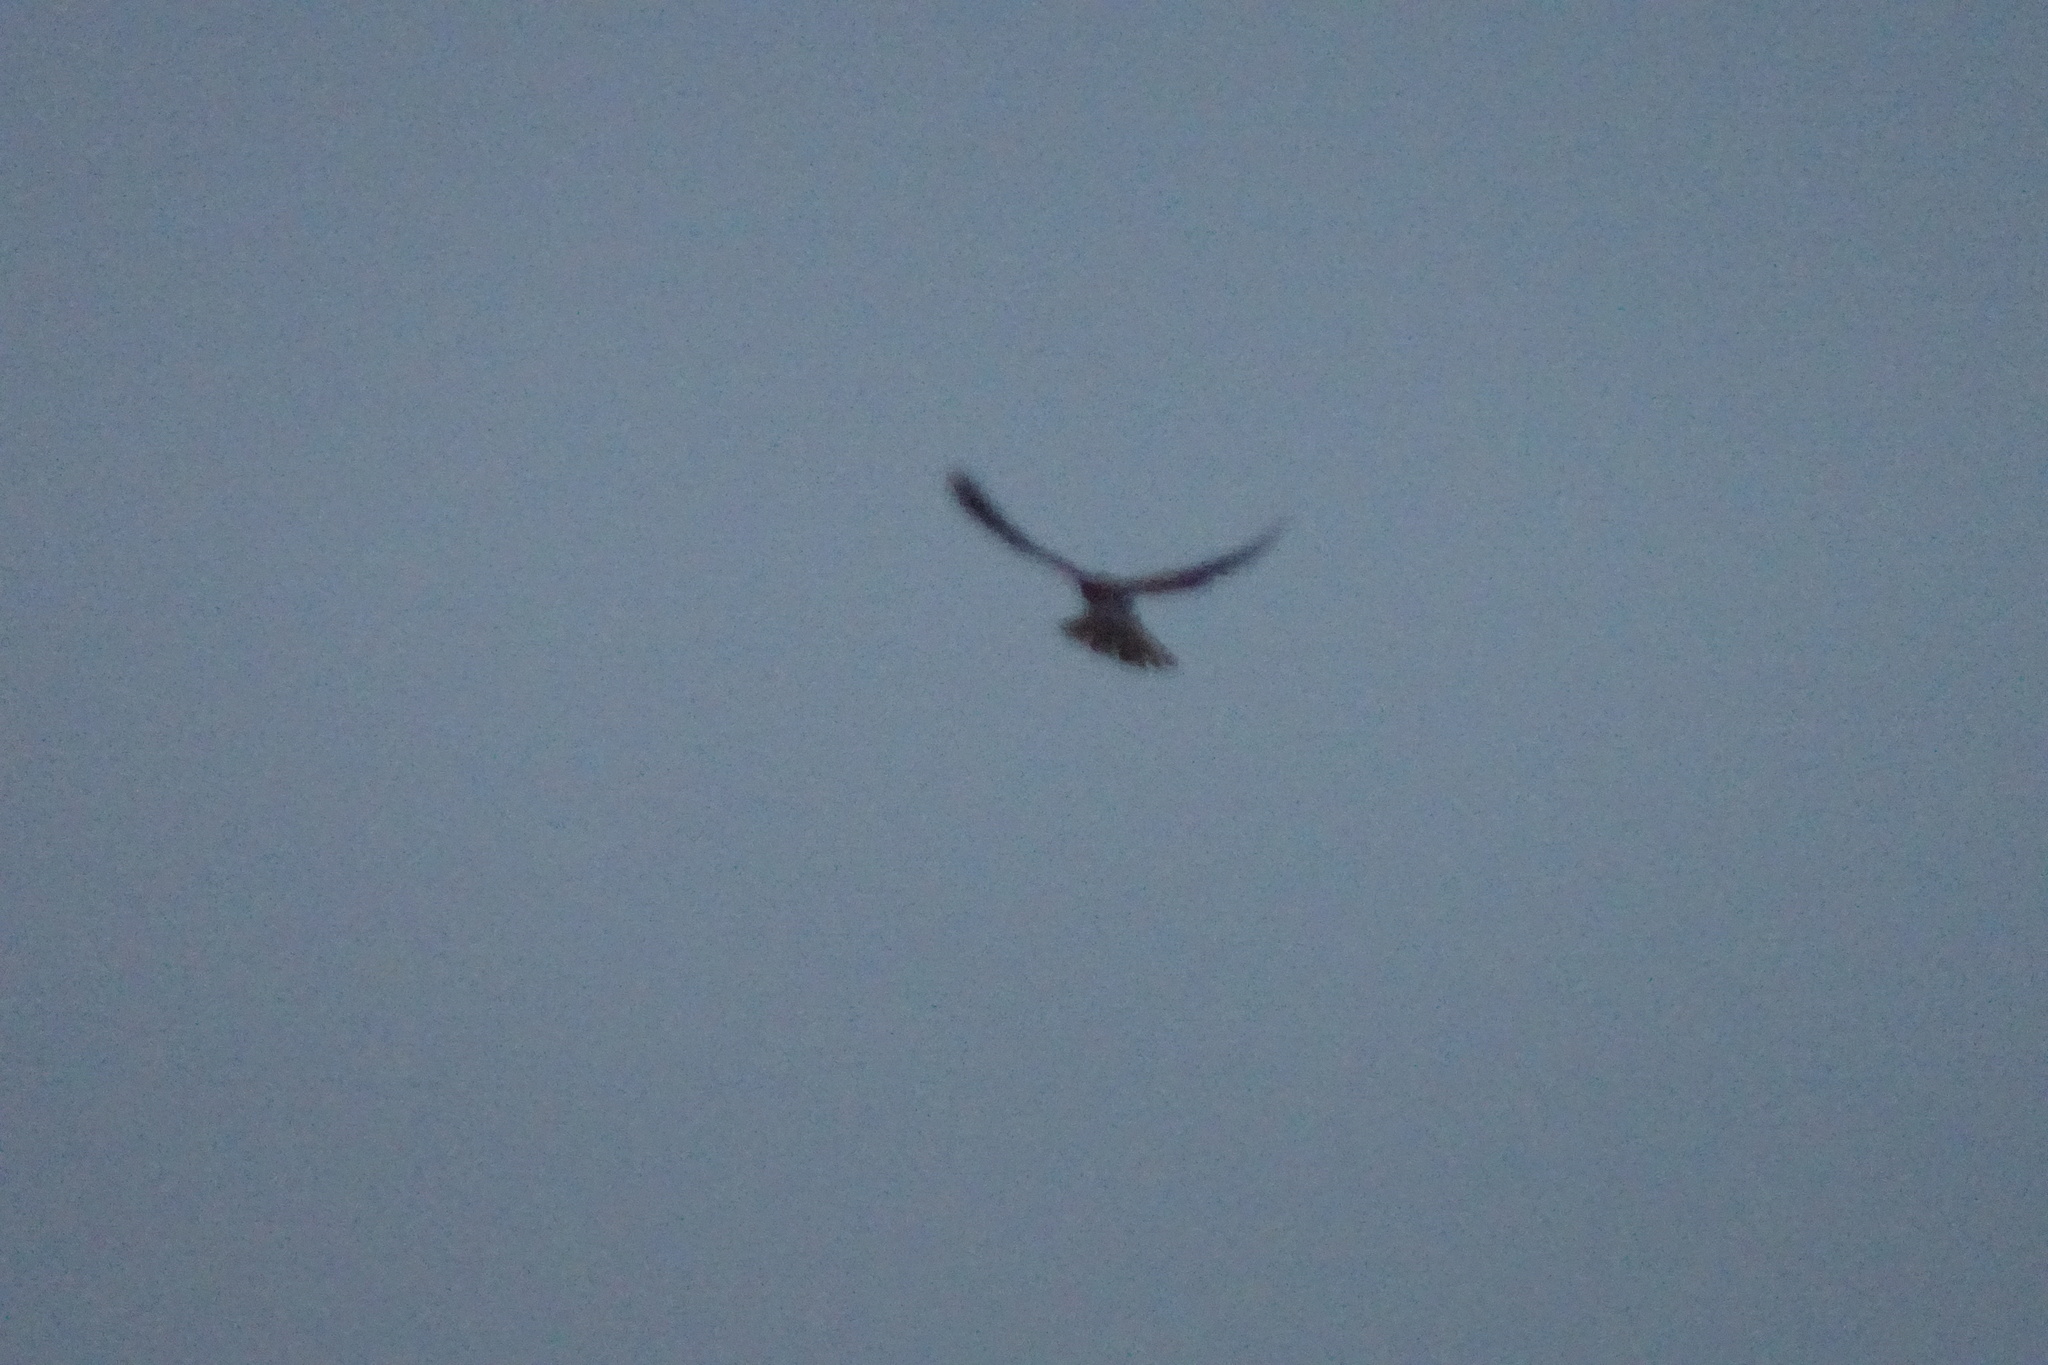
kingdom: Animalia
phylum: Chordata
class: Aves
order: Falconiformes
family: Falconidae
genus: Falco
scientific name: Falco tinnunculus
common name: Common kestrel
